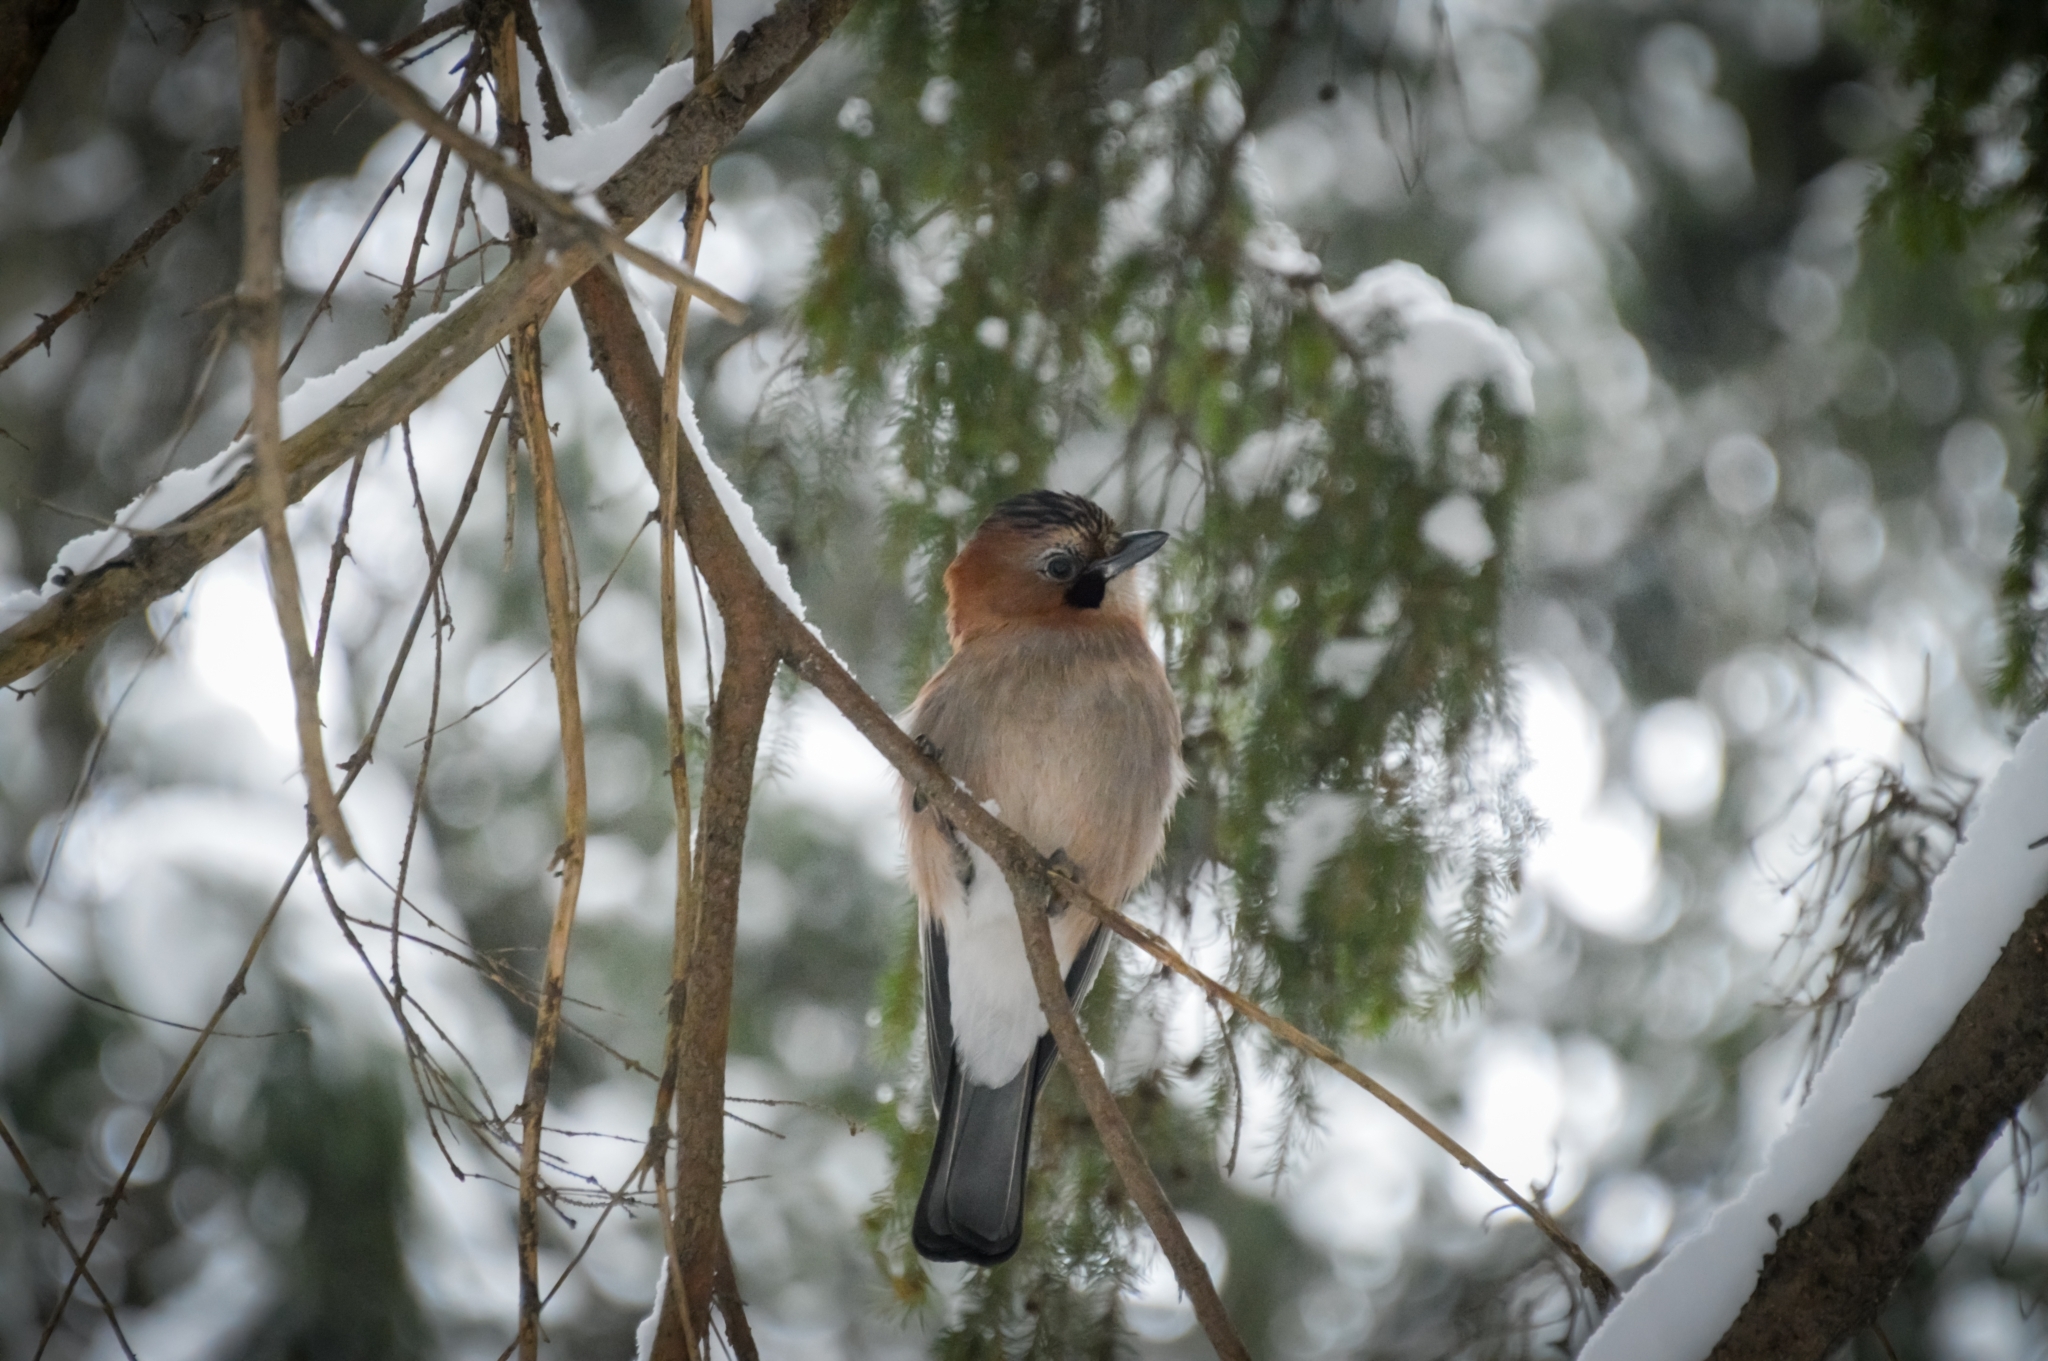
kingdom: Animalia
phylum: Chordata
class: Aves
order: Passeriformes
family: Corvidae
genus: Garrulus
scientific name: Garrulus glandarius
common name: Eurasian jay
